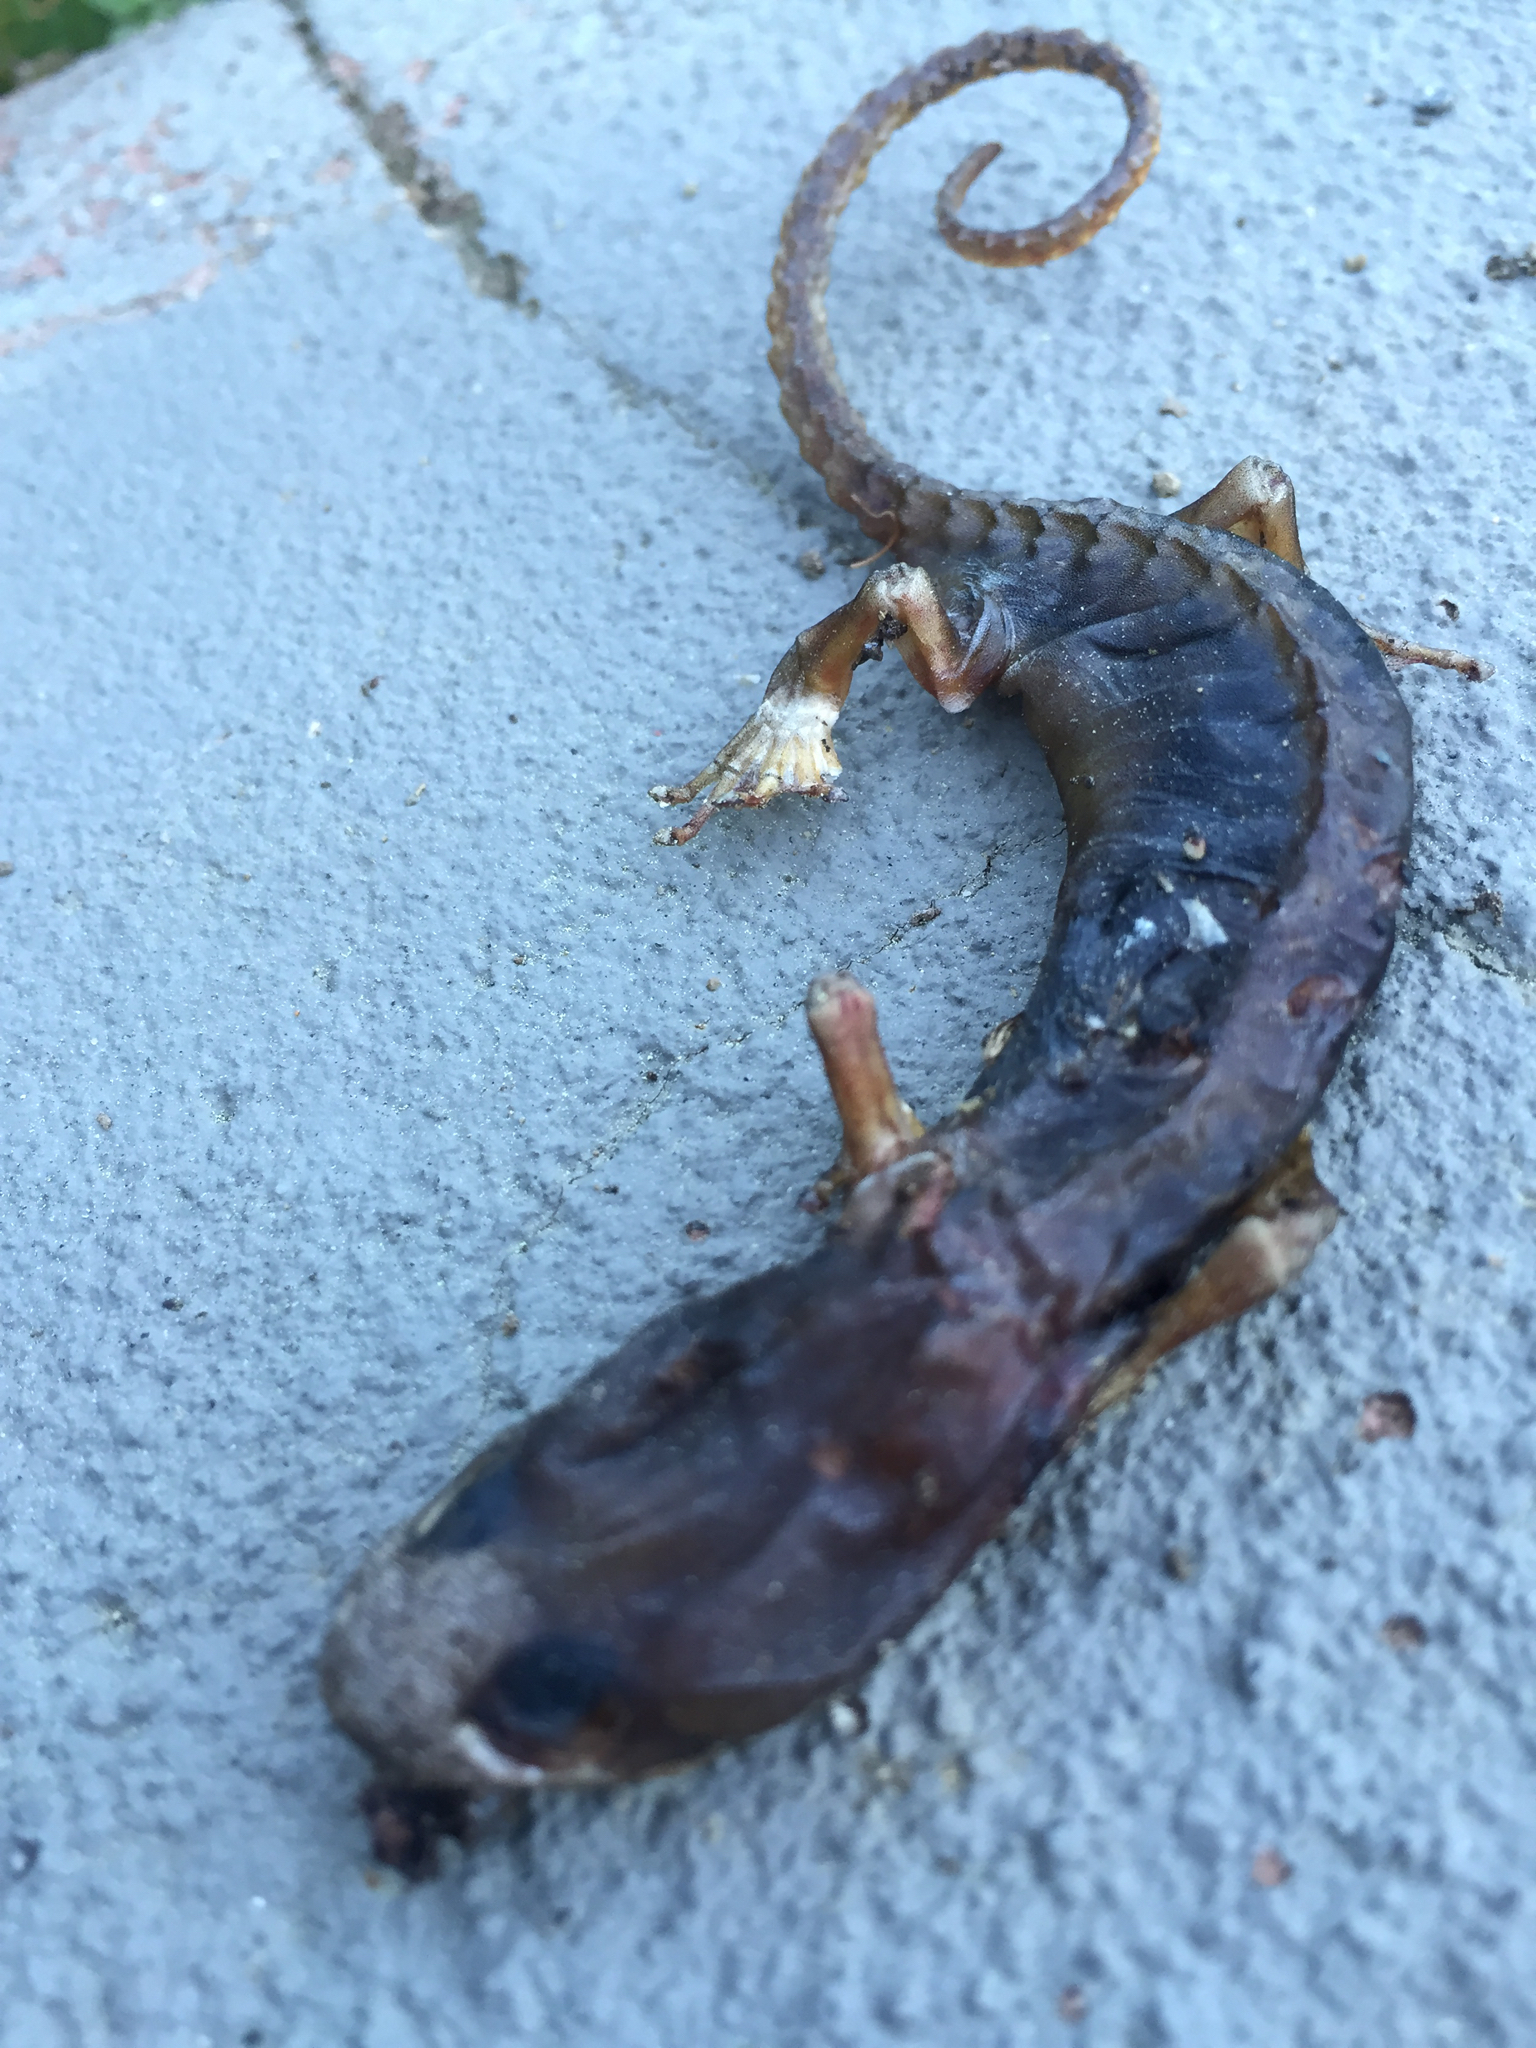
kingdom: Animalia
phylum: Chordata
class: Amphibia
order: Caudata
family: Plethodontidae
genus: Aneides
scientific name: Aneides lugubris
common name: Arboreal salamander
